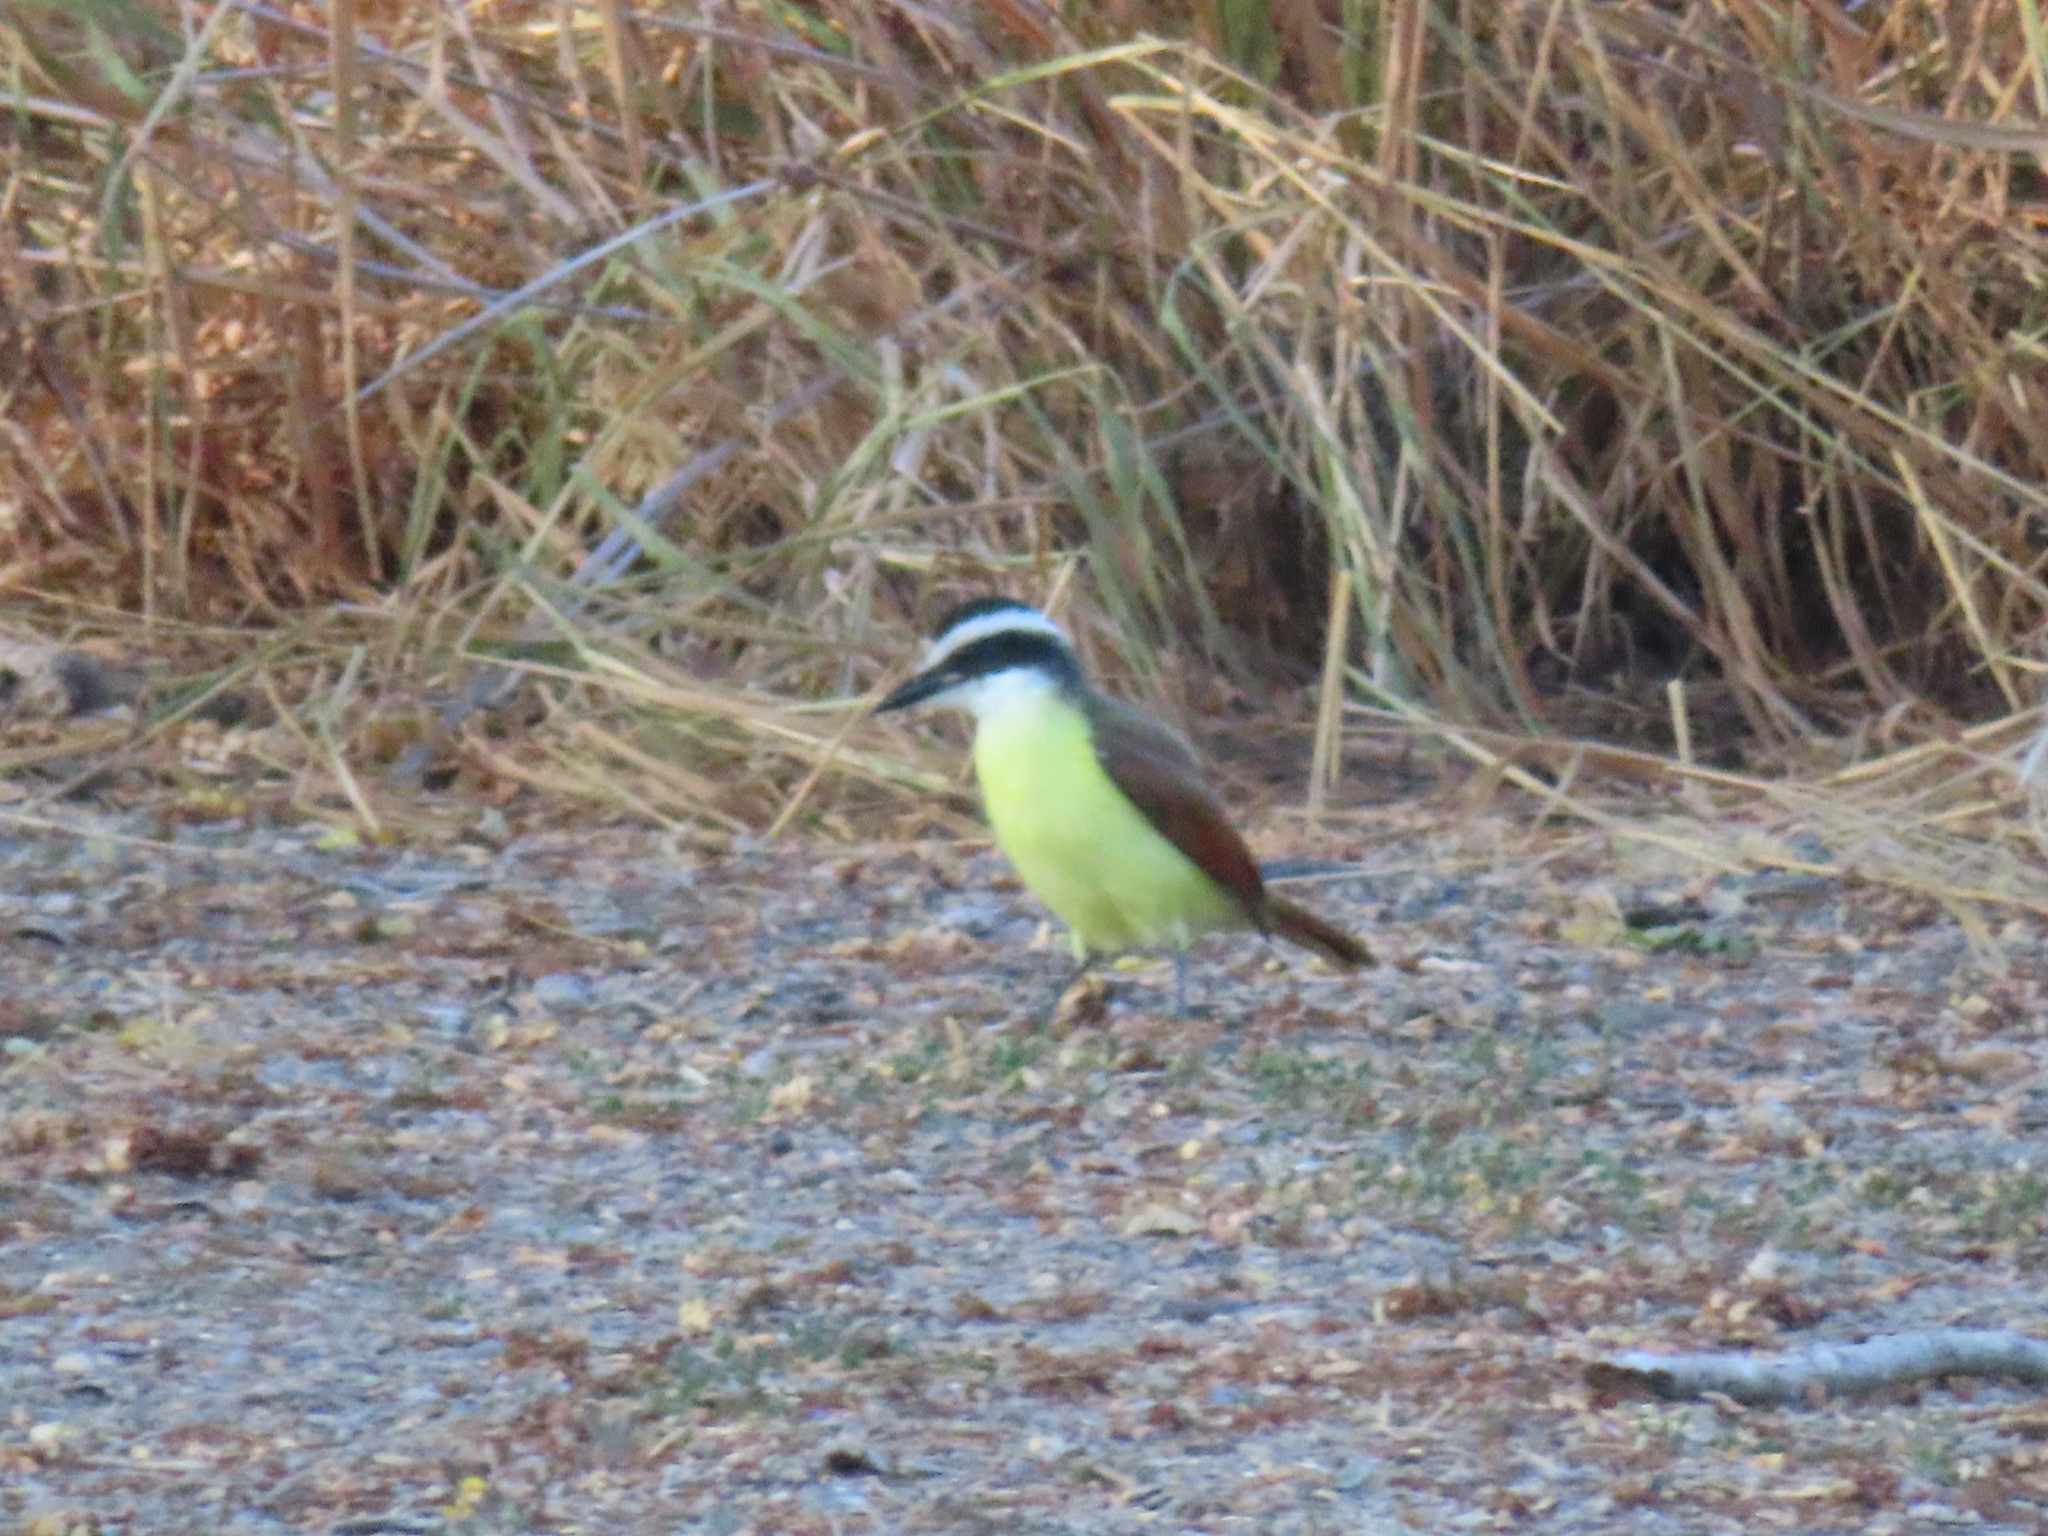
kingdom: Animalia
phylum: Chordata
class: Aves
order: Passeriformes
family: Tyrannidae
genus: Pitangus
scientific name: Pitangus sulphuratus
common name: Great kiskadee
